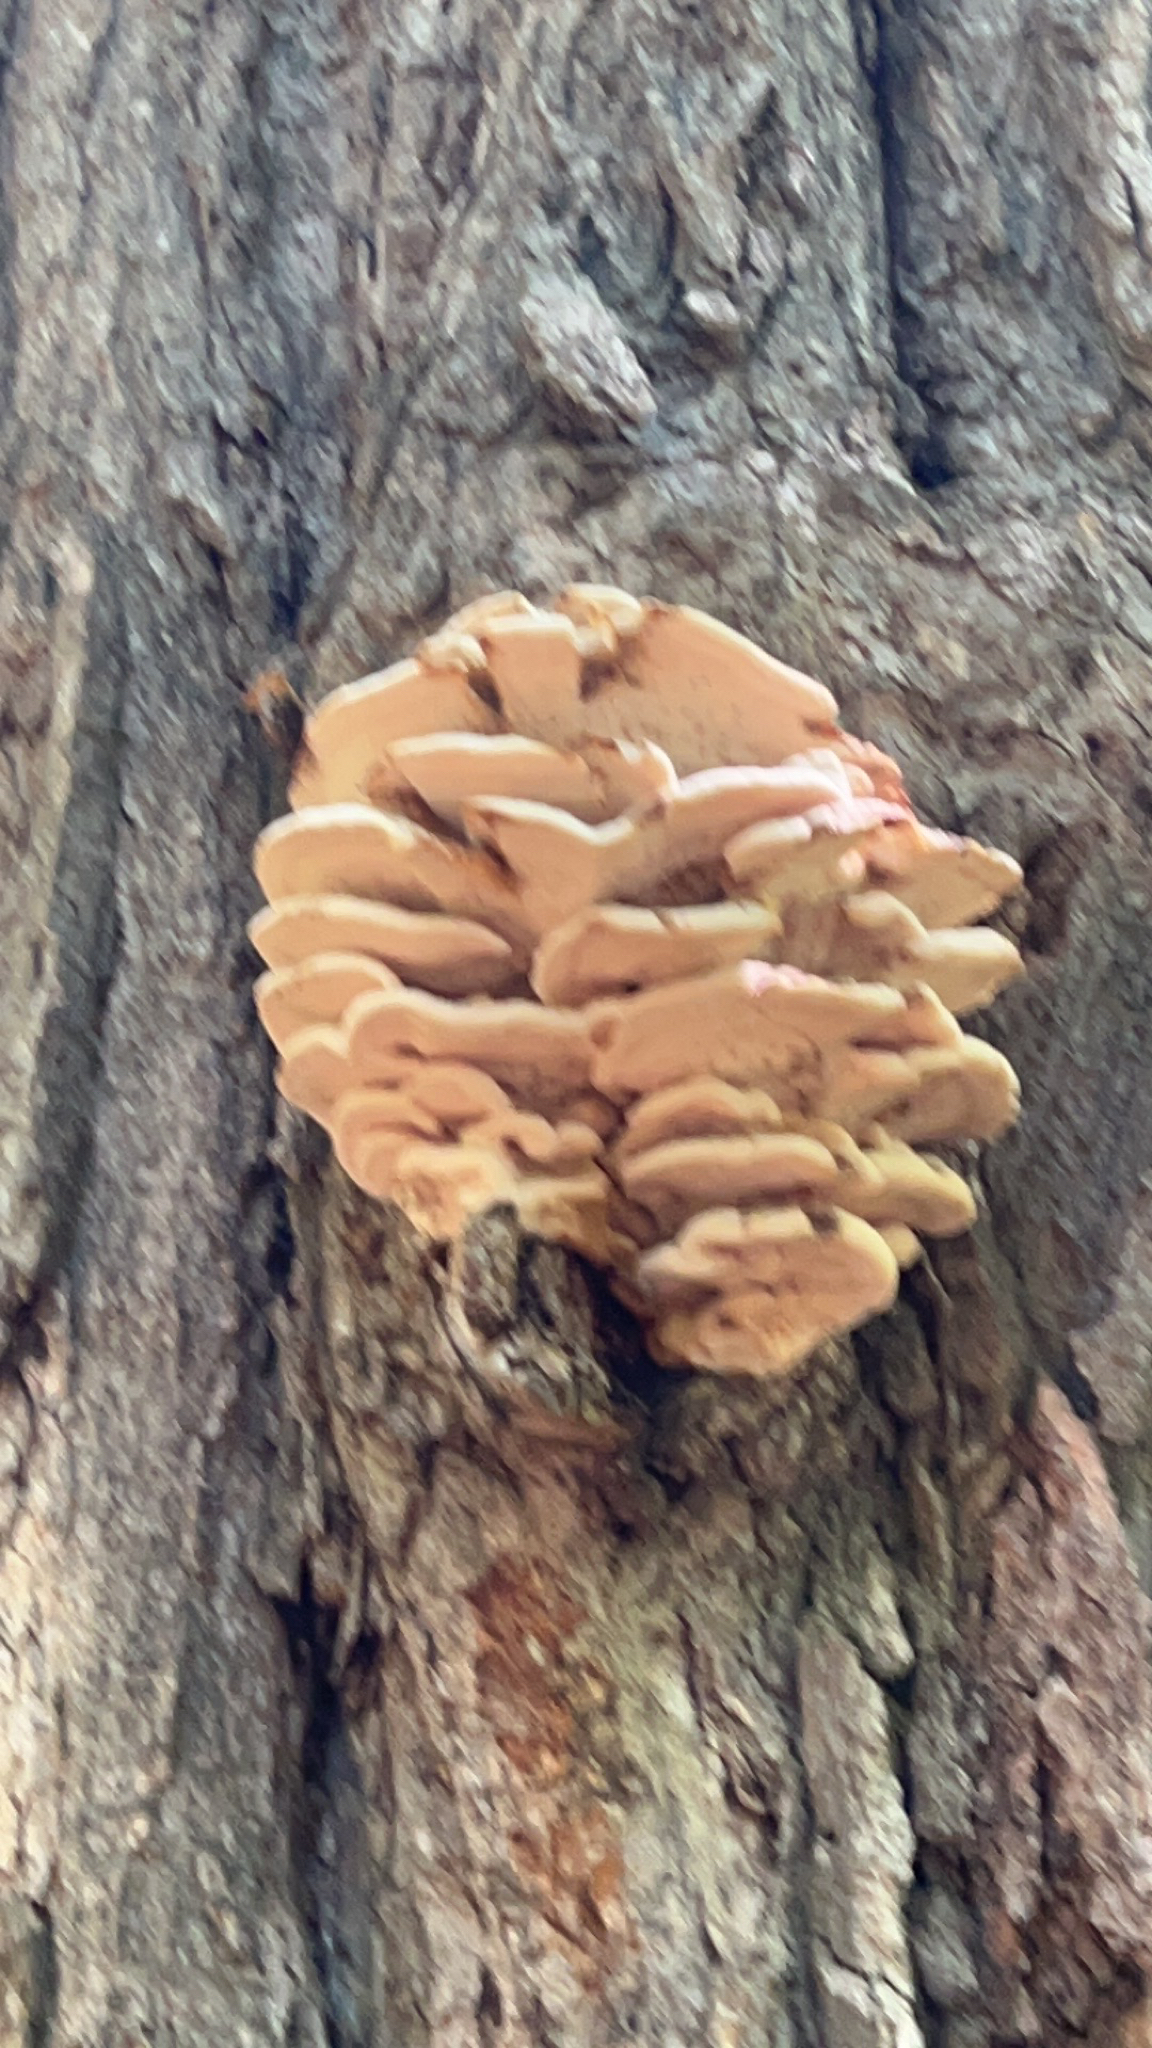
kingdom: Fungi
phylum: Basidiomycota
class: Agaricomycetes
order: Polyporales
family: Meruliaceae
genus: Climacodon
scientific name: Climacodon septentrionalis
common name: Northern tooth
